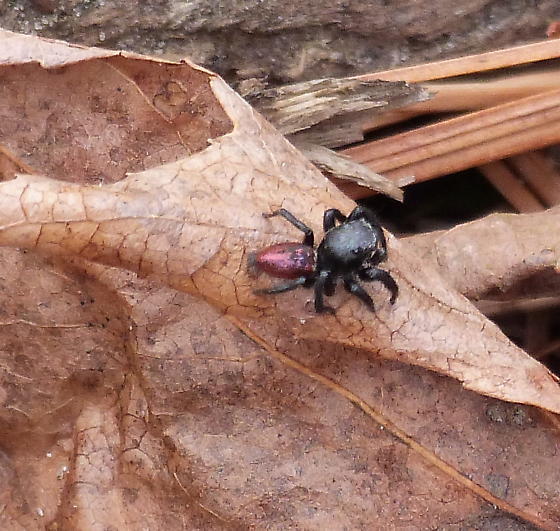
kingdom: Animalia
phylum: Arthropoda
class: Arachnida
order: Araneae
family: Salticidae
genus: Habronattus
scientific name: Habronattus decorus
